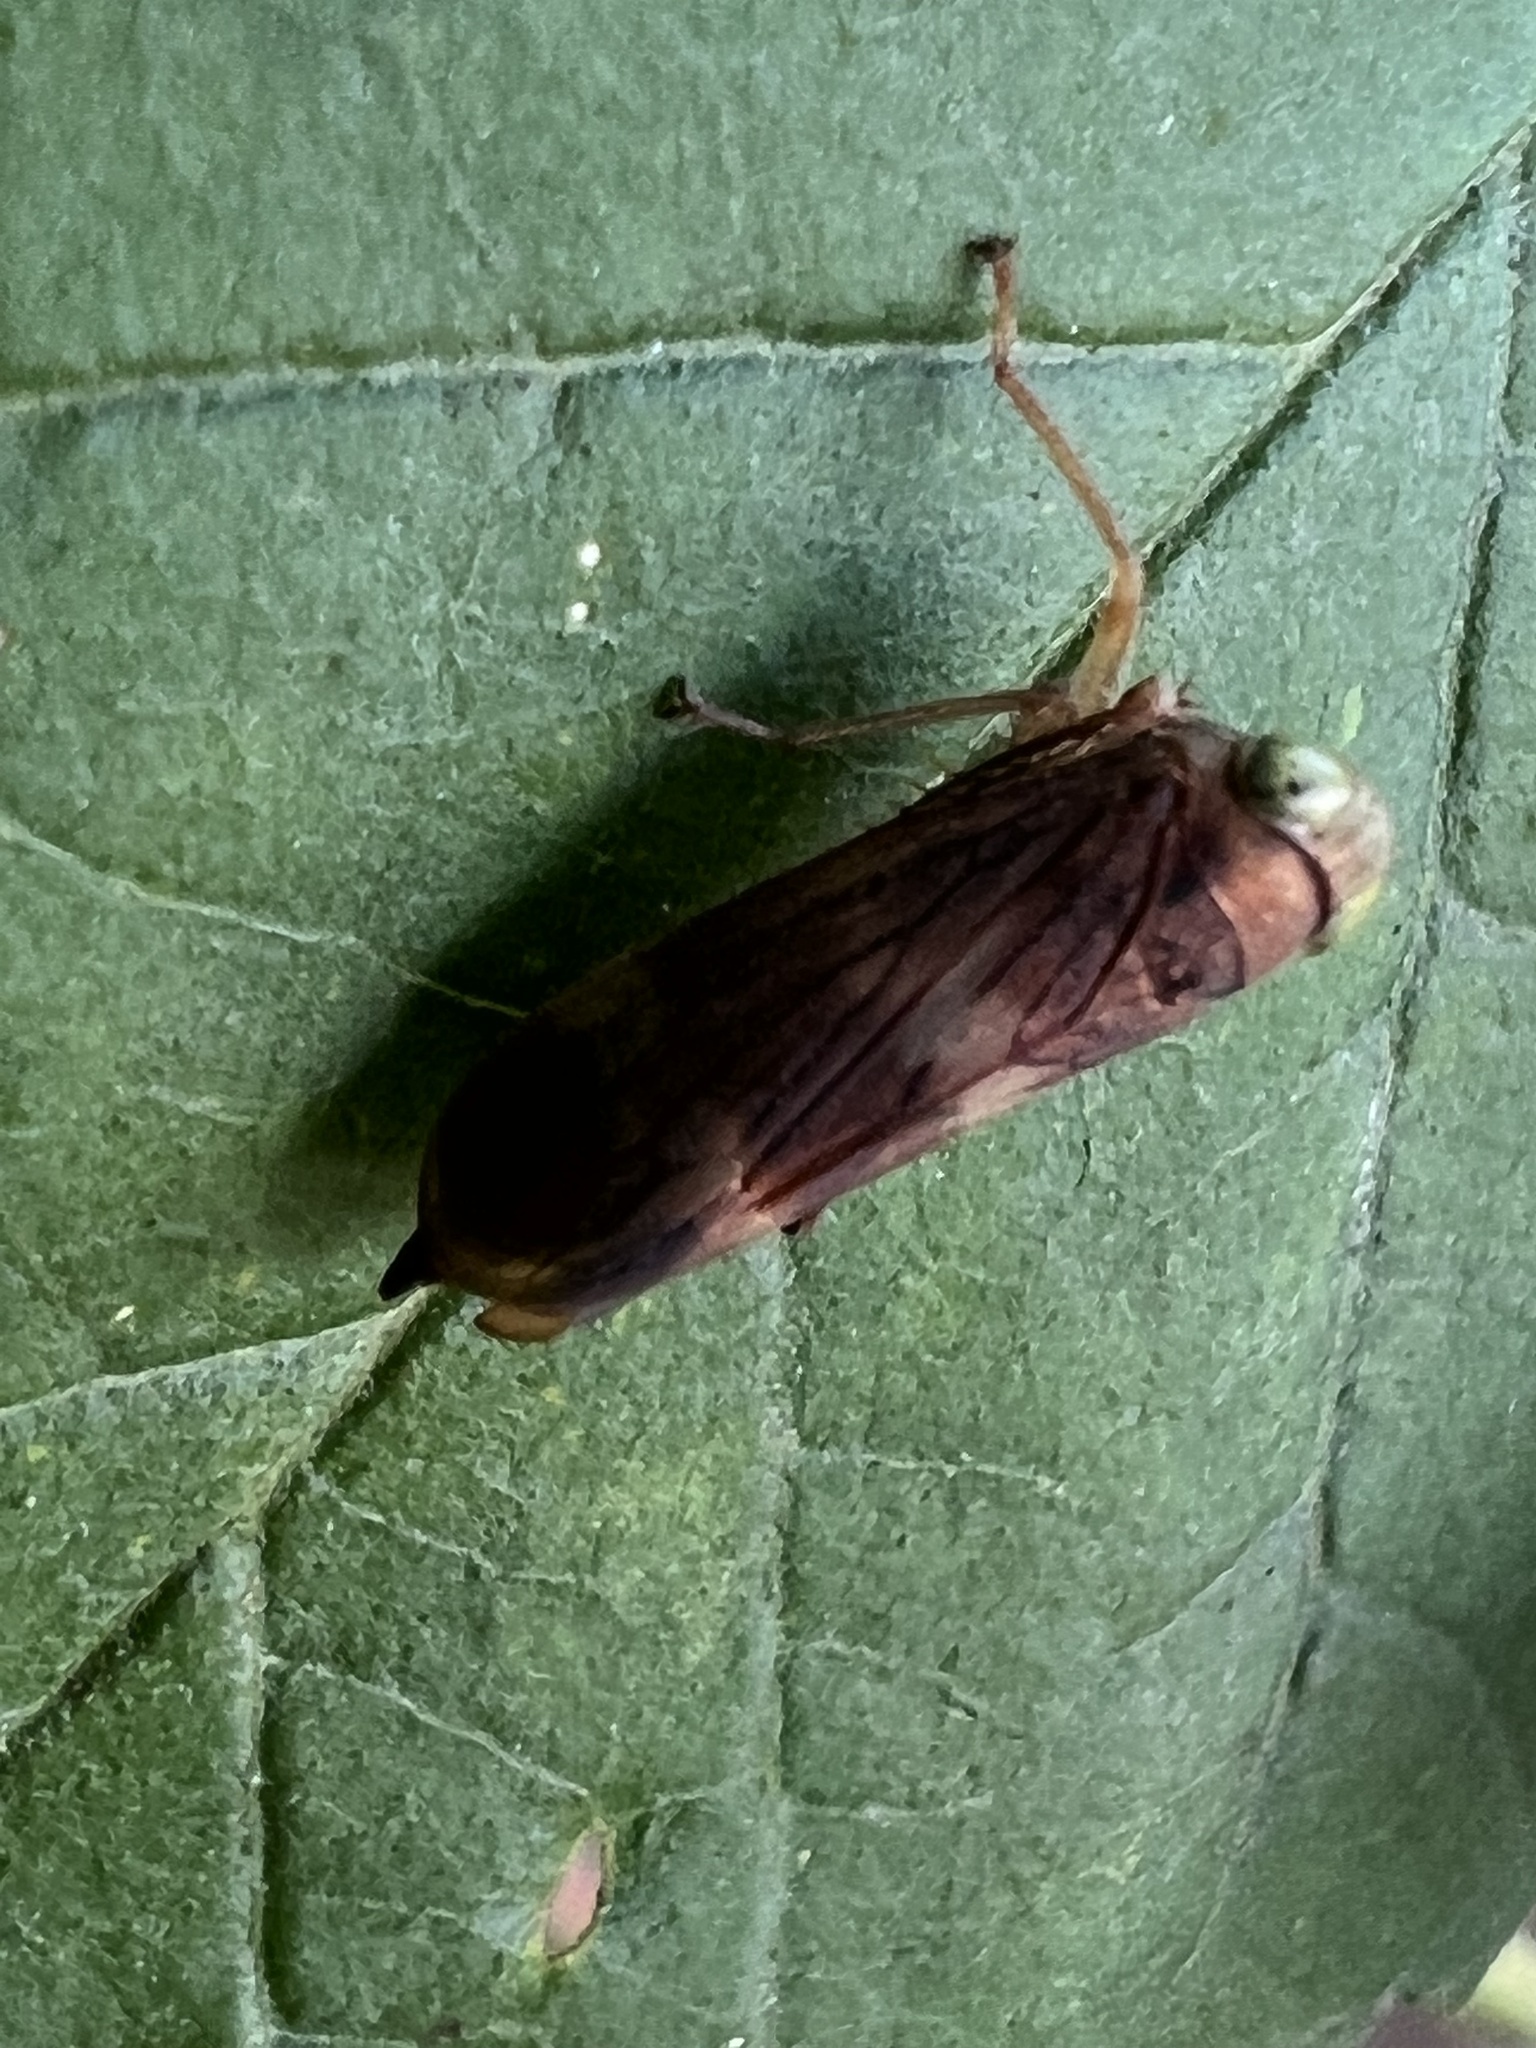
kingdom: Animalia
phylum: Arthropoda
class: Insecta
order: Hemiptera
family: Cicadellidae
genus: Jikradia
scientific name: Jikradia olitoria
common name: Coppery leafhopper
